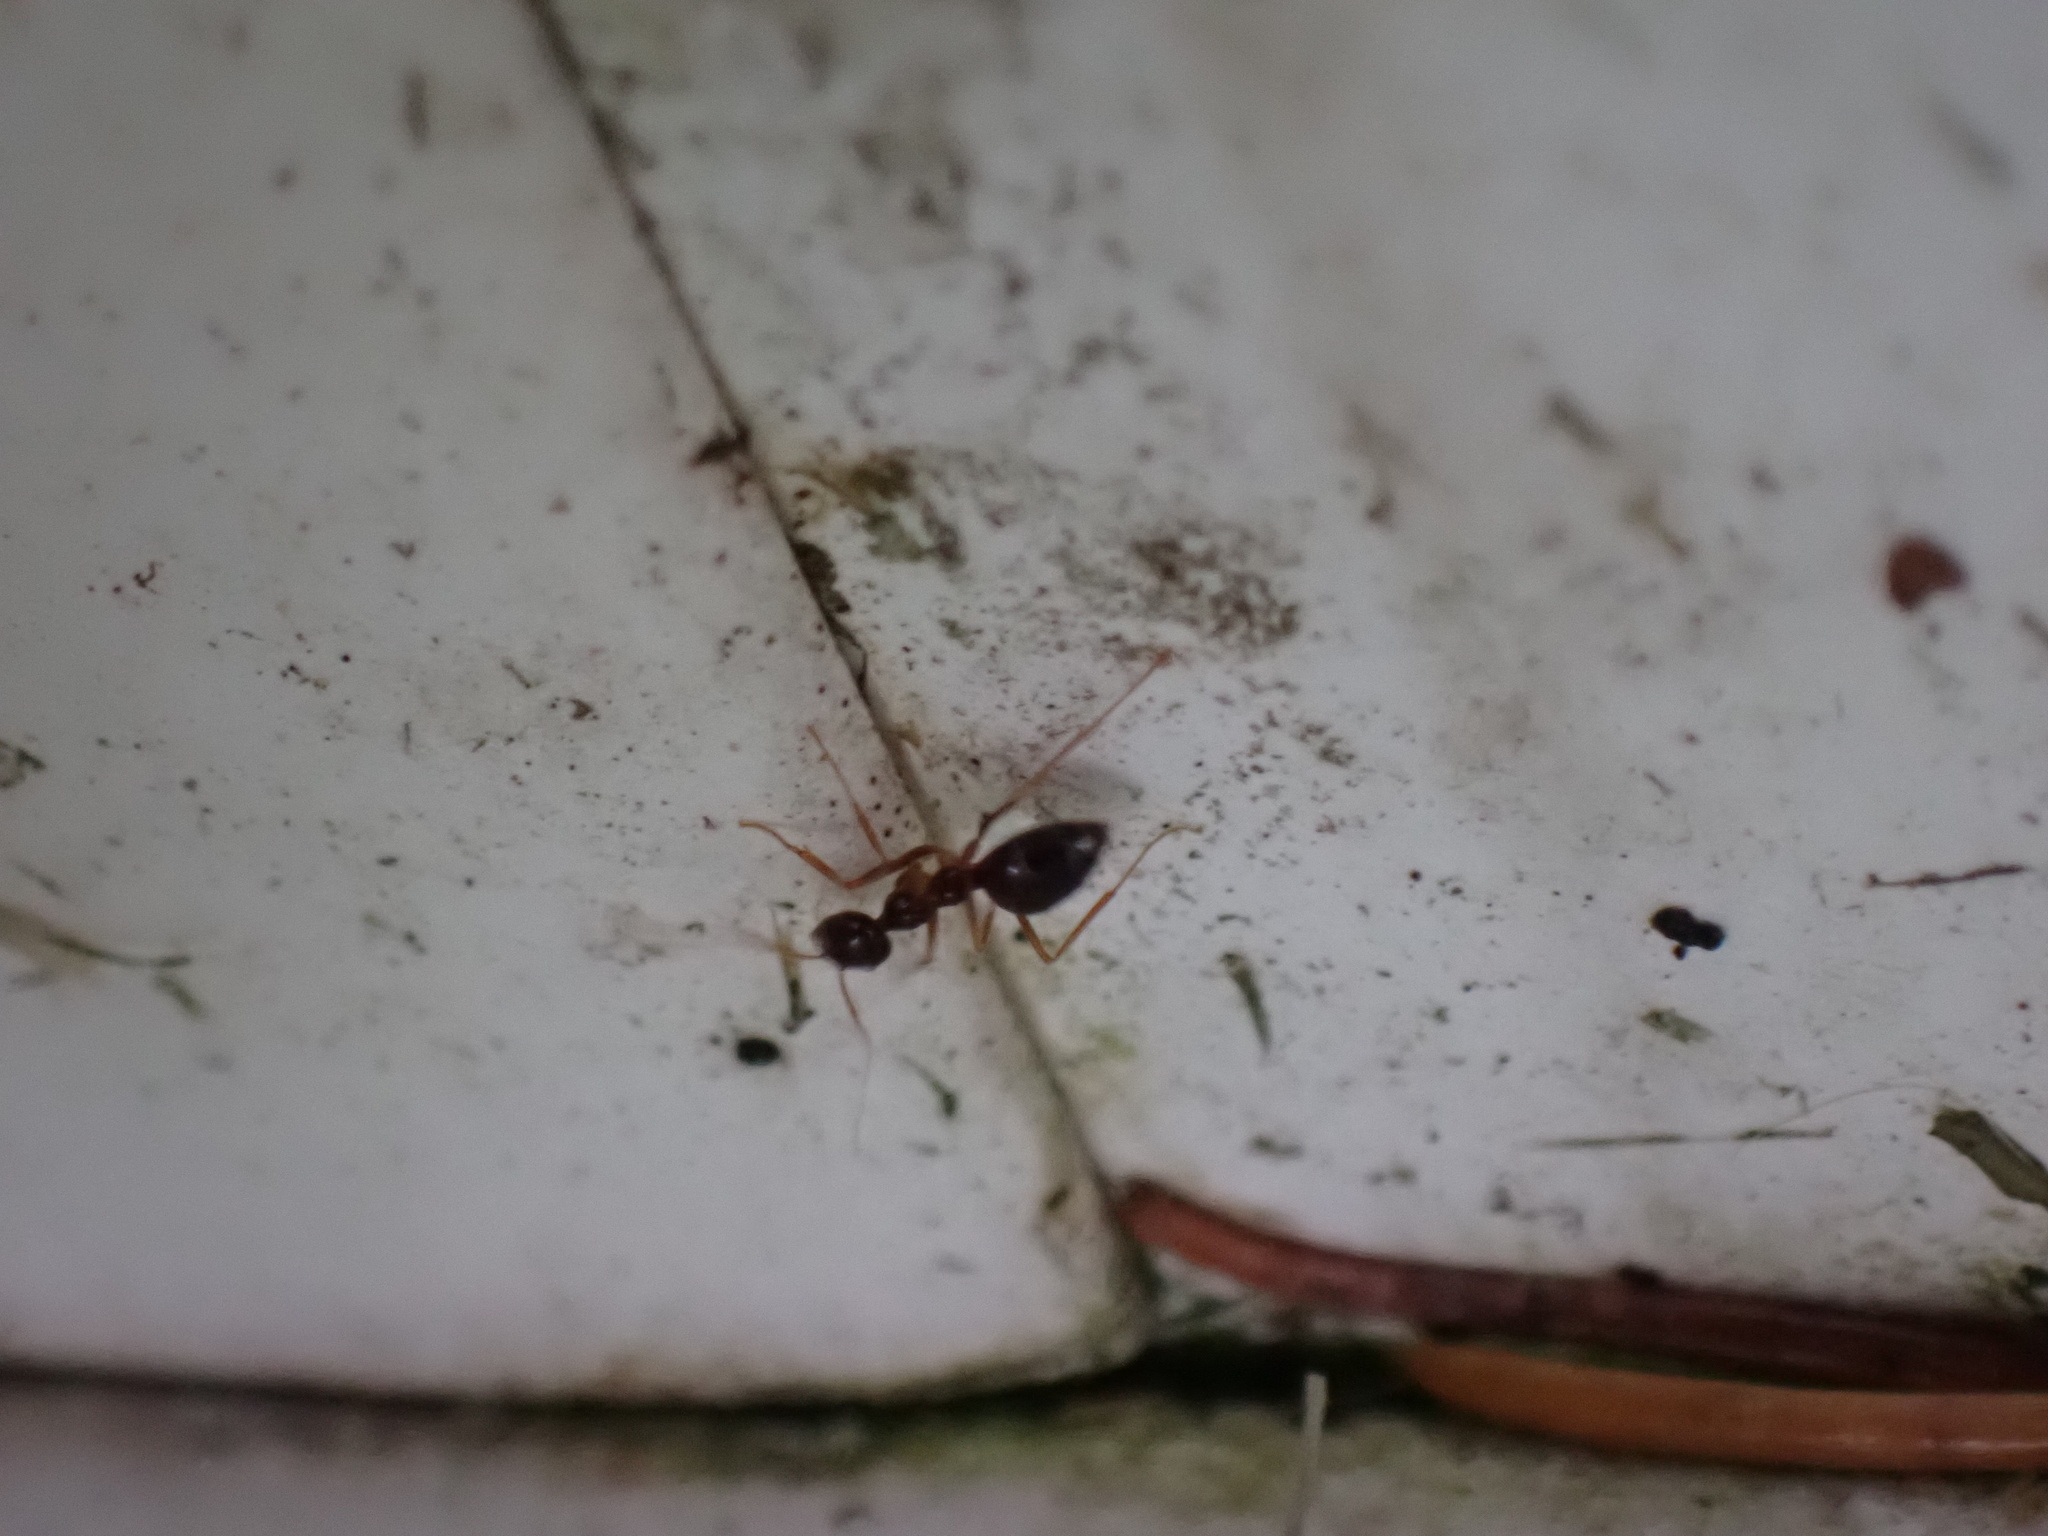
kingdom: Animalia
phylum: Arthropoda
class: Insecta
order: Hymenoptera
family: Formicidae
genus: Prenolepis
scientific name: Prenolepis imparis
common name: Small honey ant
